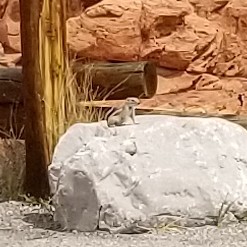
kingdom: Animalia
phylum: Chordata
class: Mammalia
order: Rodentia
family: Sciuridae
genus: Ammospermophilus
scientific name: Ammospermophilus leucurus
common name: White-tailed antelope squirrel
